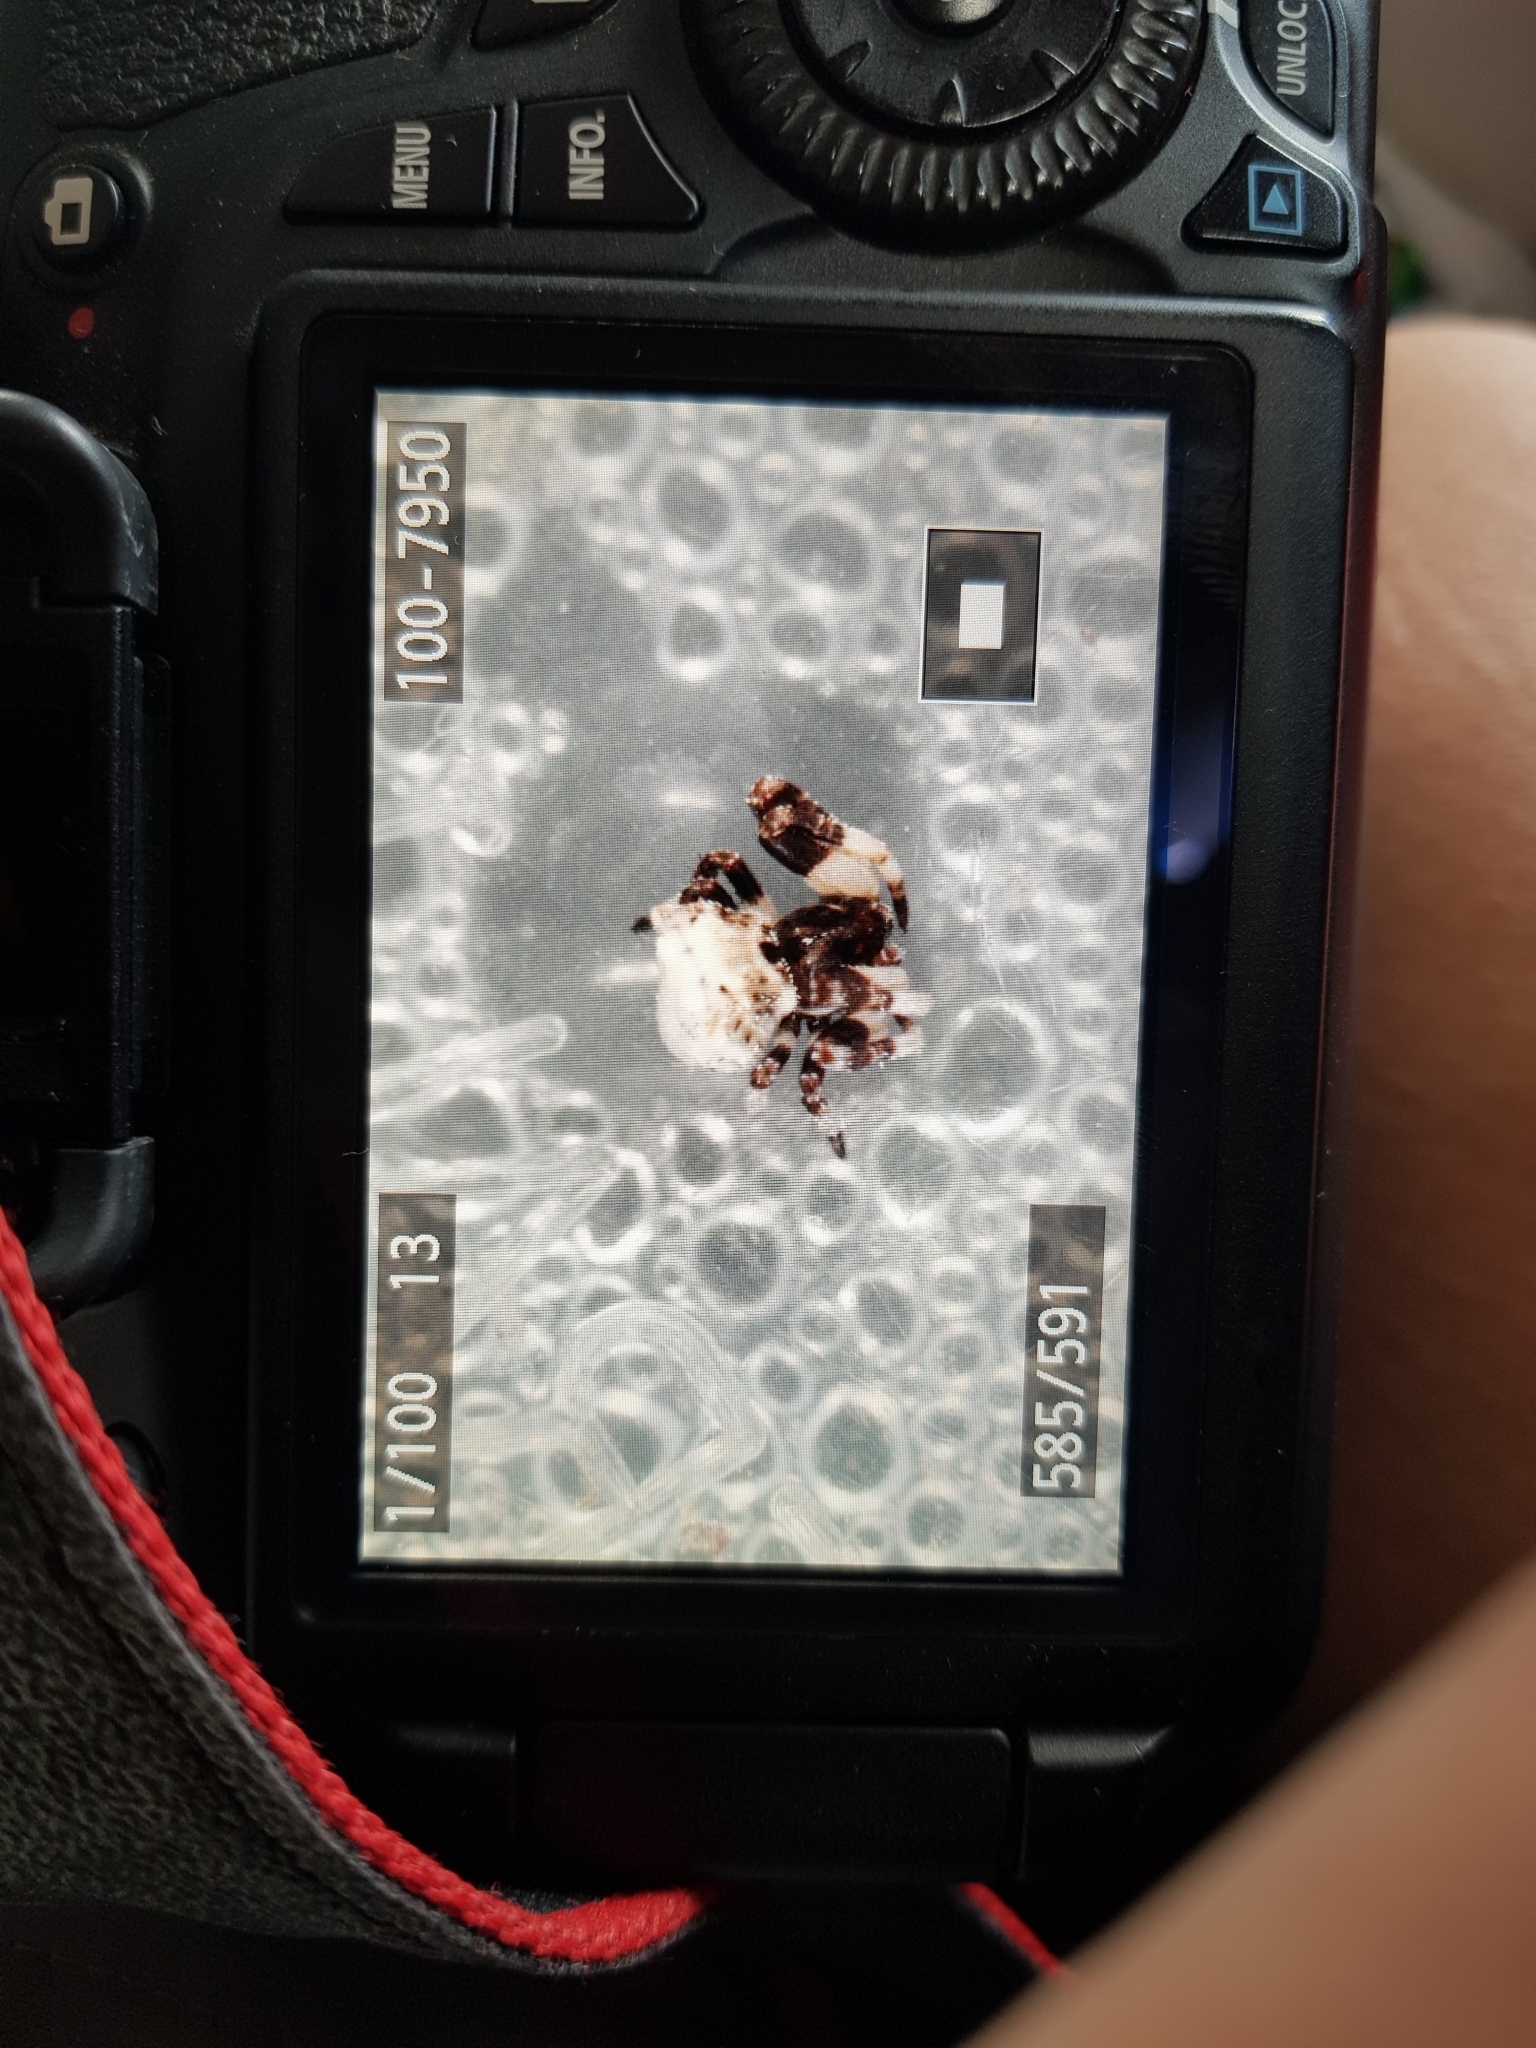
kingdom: Animalia
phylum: Arthropoda
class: Arachnida
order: Araneae
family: Araneidae
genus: Celaenia
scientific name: Celaenia excavata
